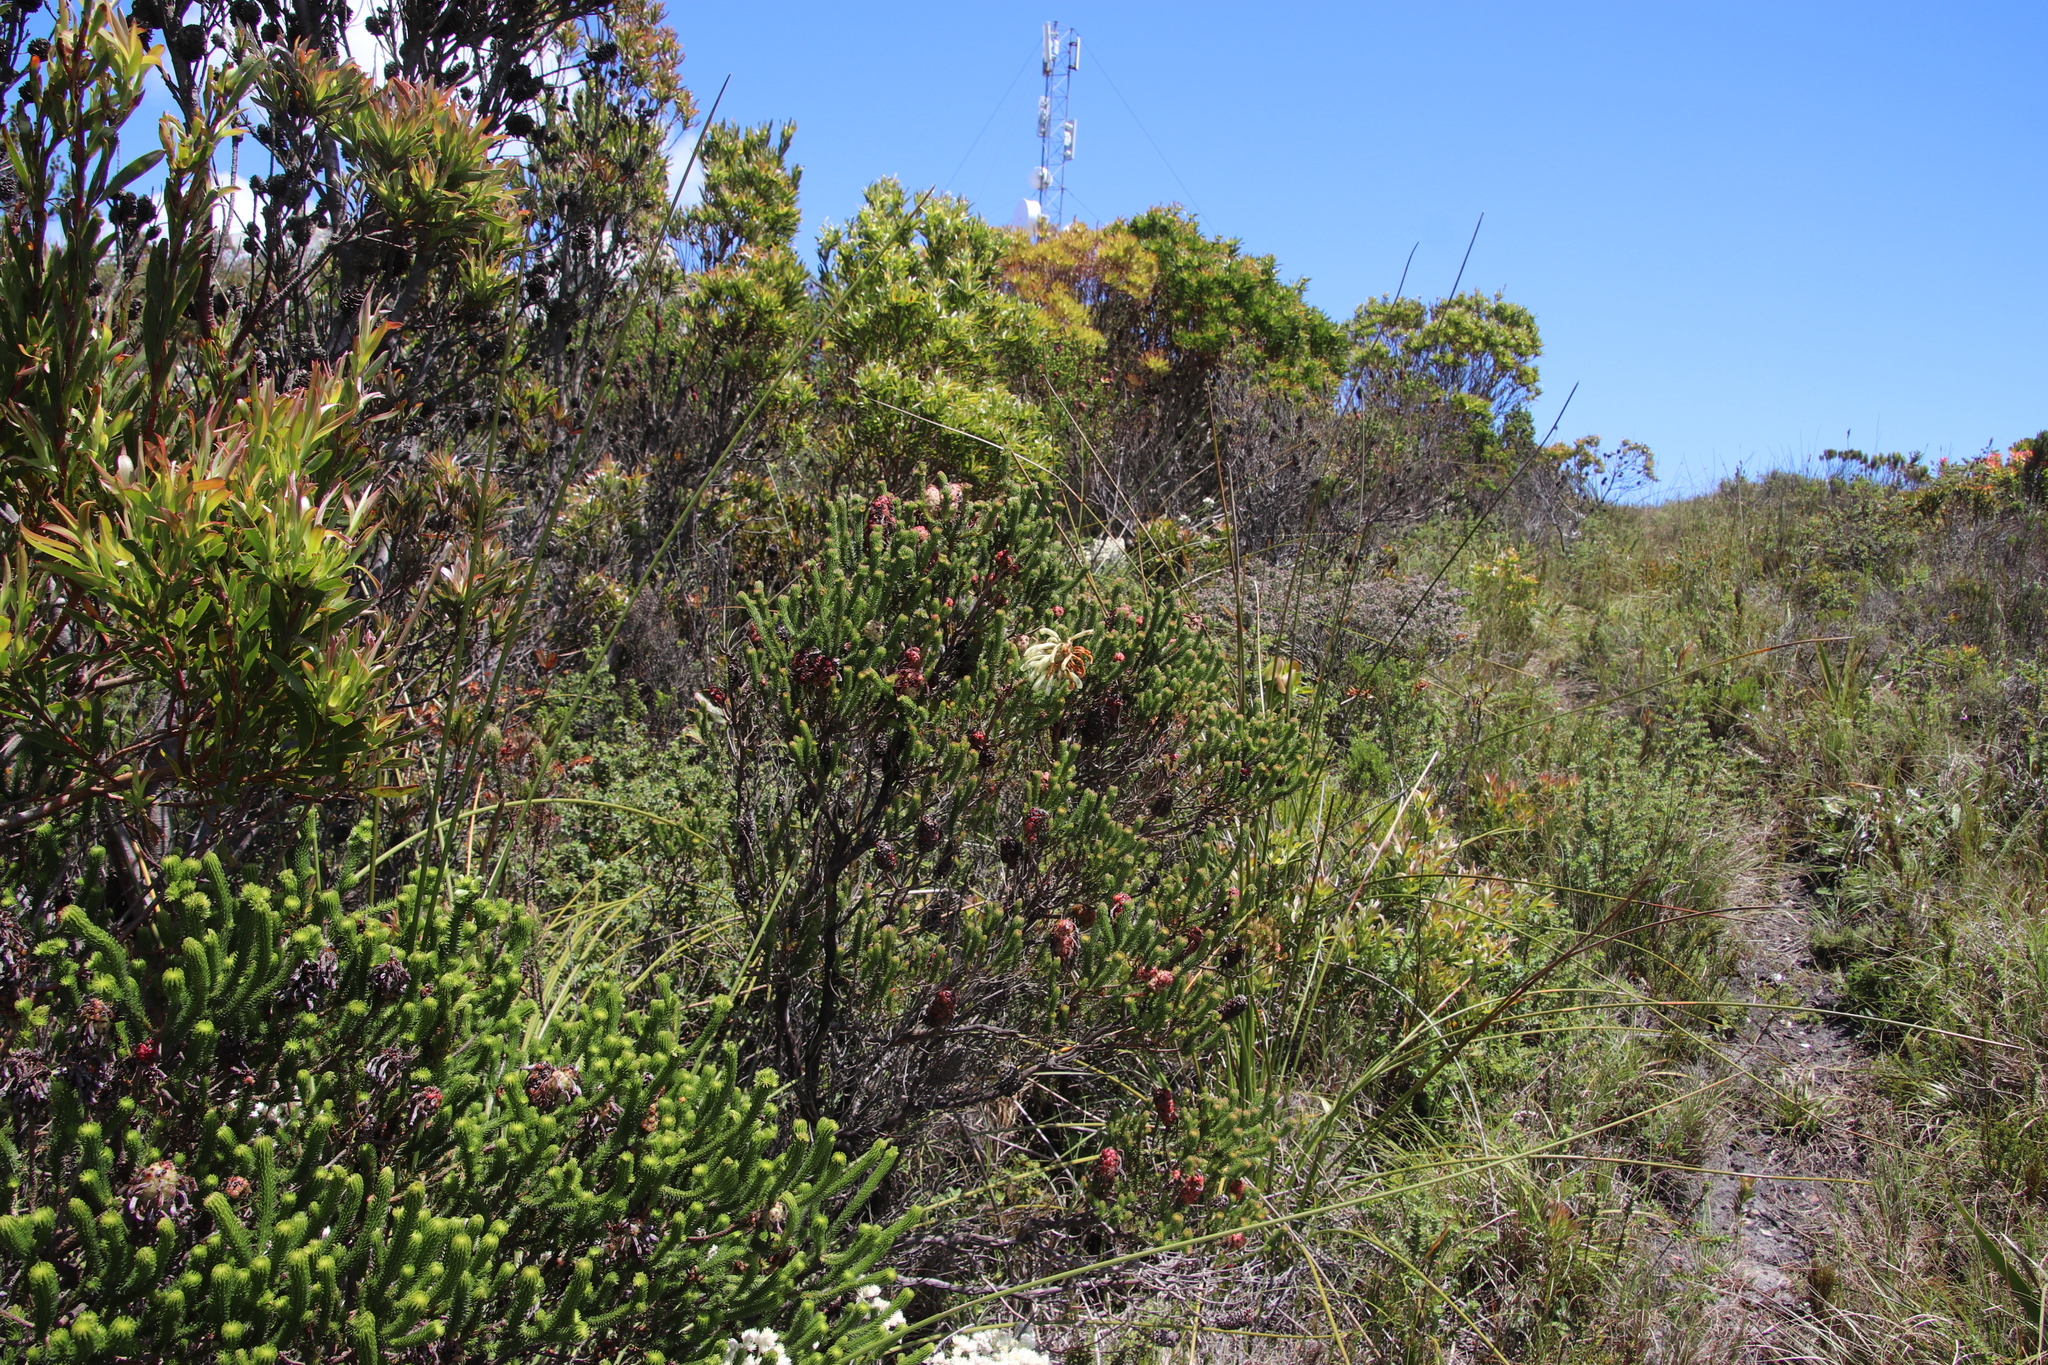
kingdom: Plantae
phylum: Tracheophyta
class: Magnoliopsida
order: Ericales
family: Ericaceae
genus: Erica
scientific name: Erica sessiliflora
